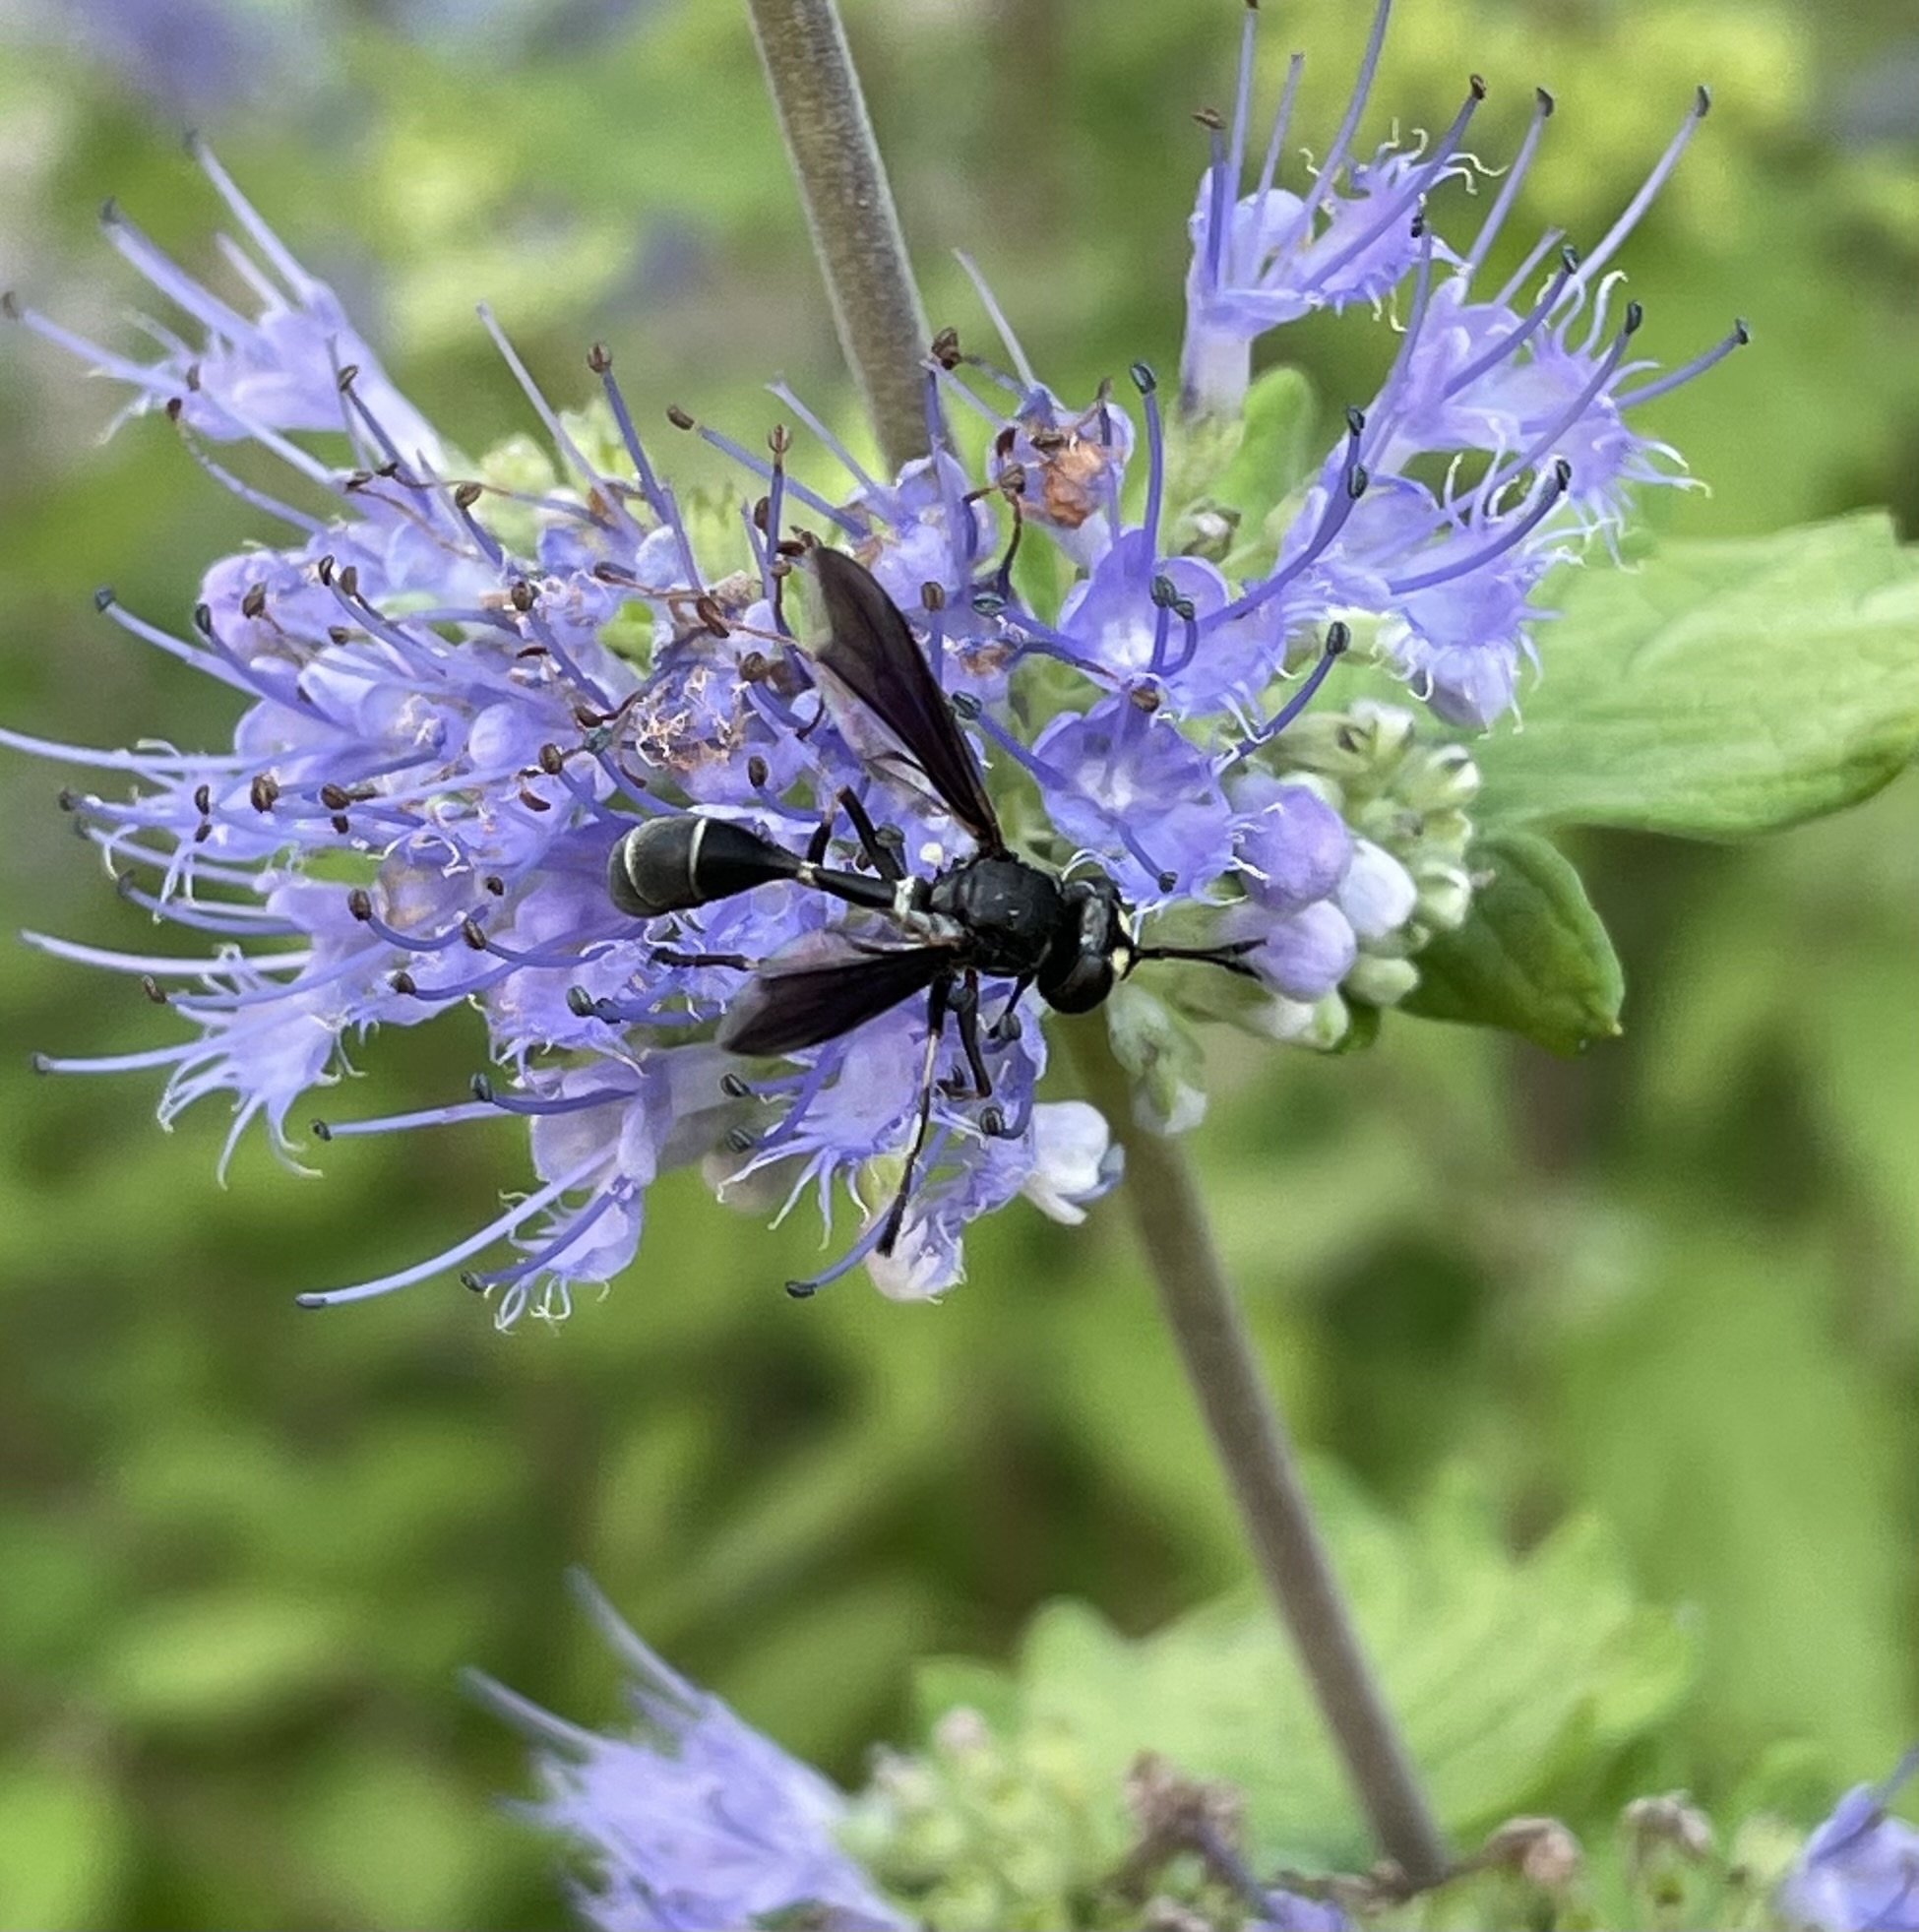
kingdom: Animalia
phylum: Arthropoda
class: Insecta
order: Diptera
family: Conopidae
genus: Physocephala
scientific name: Physocephala tibialis
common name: Common eastern physocephala
